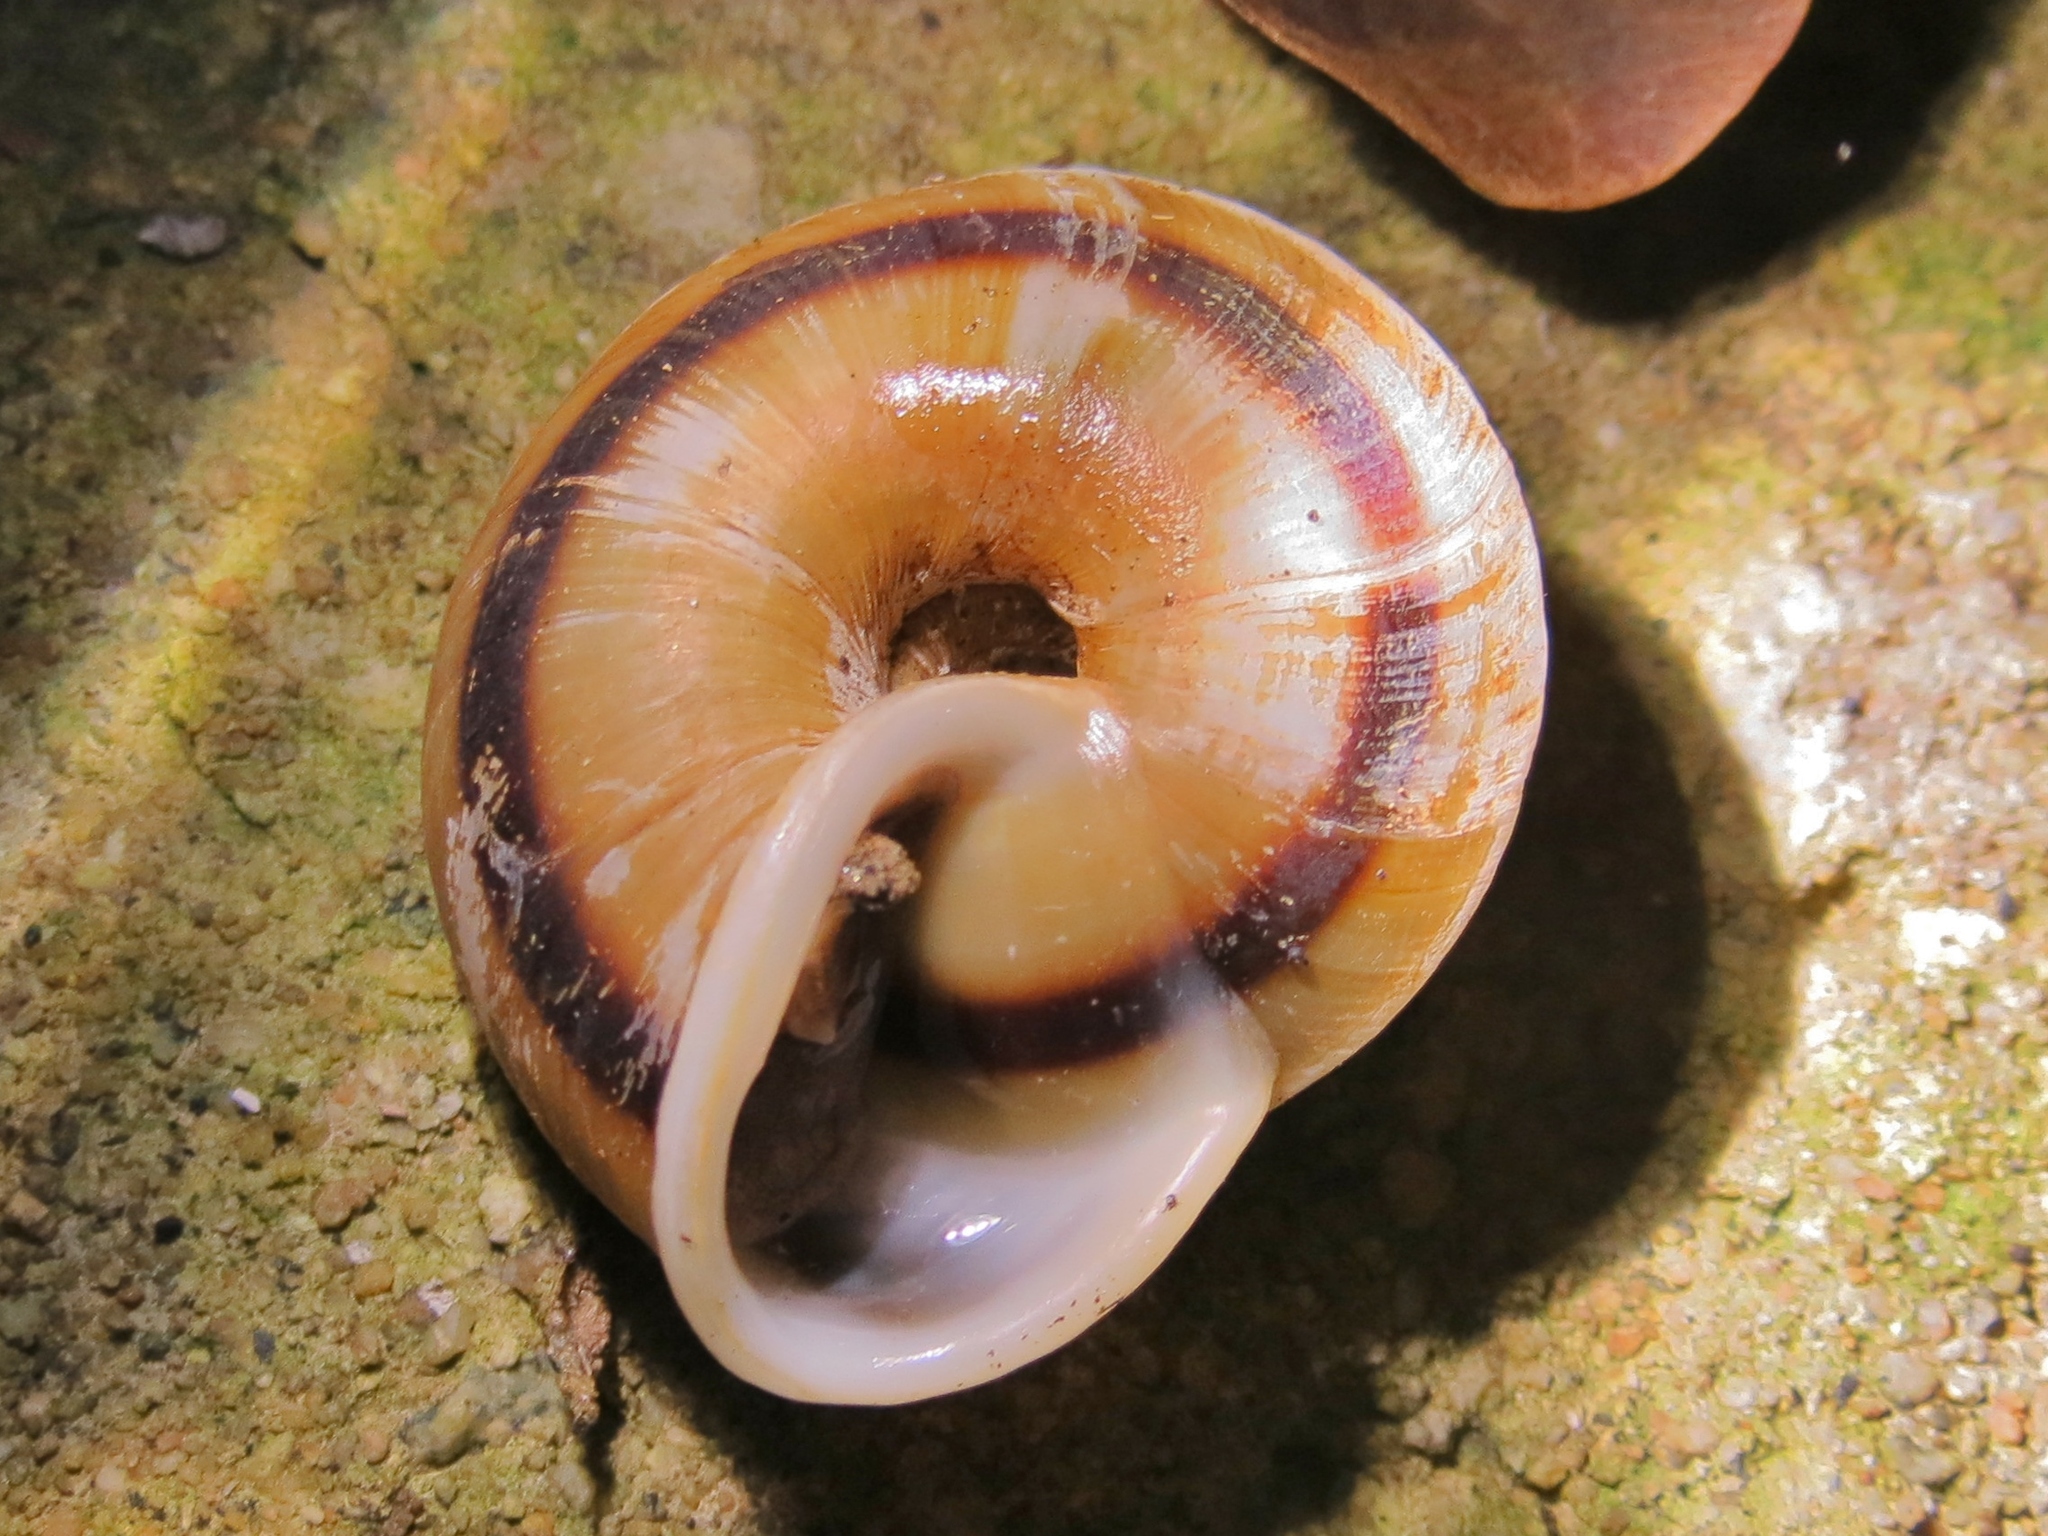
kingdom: Animalia
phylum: Mollusca
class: Gastropoda
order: Stylommatophora
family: Solaropsidae
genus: Caracolus
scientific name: Caracolus marginella
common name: Banded caracol
